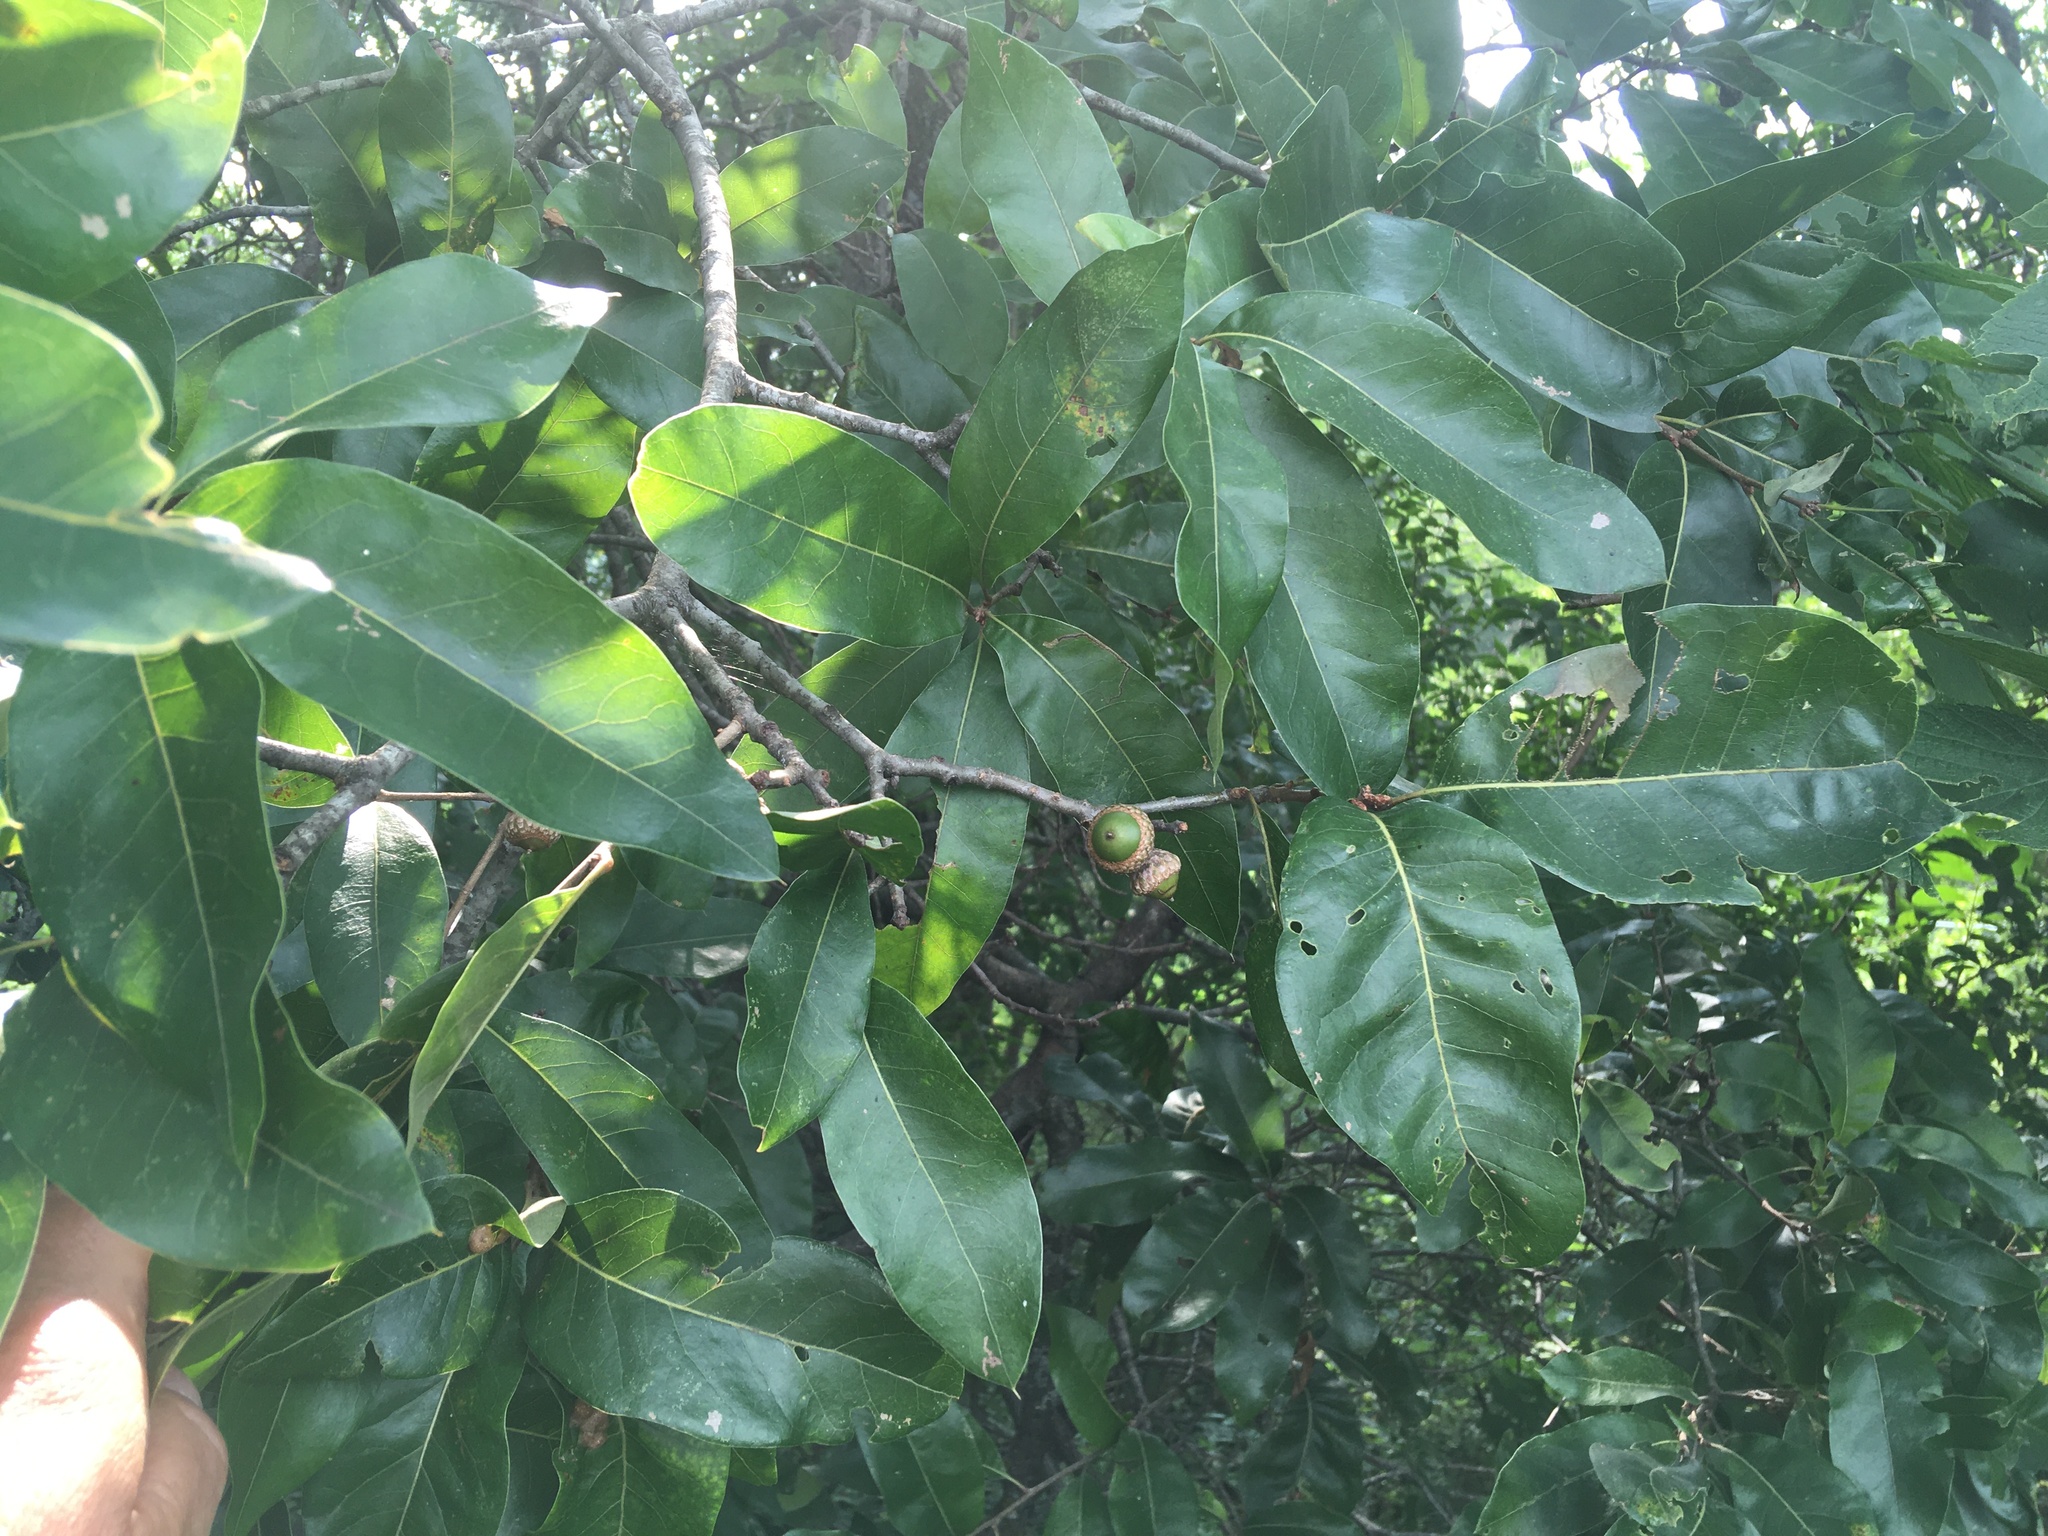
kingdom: Plantae
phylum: Tracheophyta
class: Magnoliopsida
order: Fagales
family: Fagaceae
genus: Quercus
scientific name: Quercus imbricaria
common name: Shingle oak
